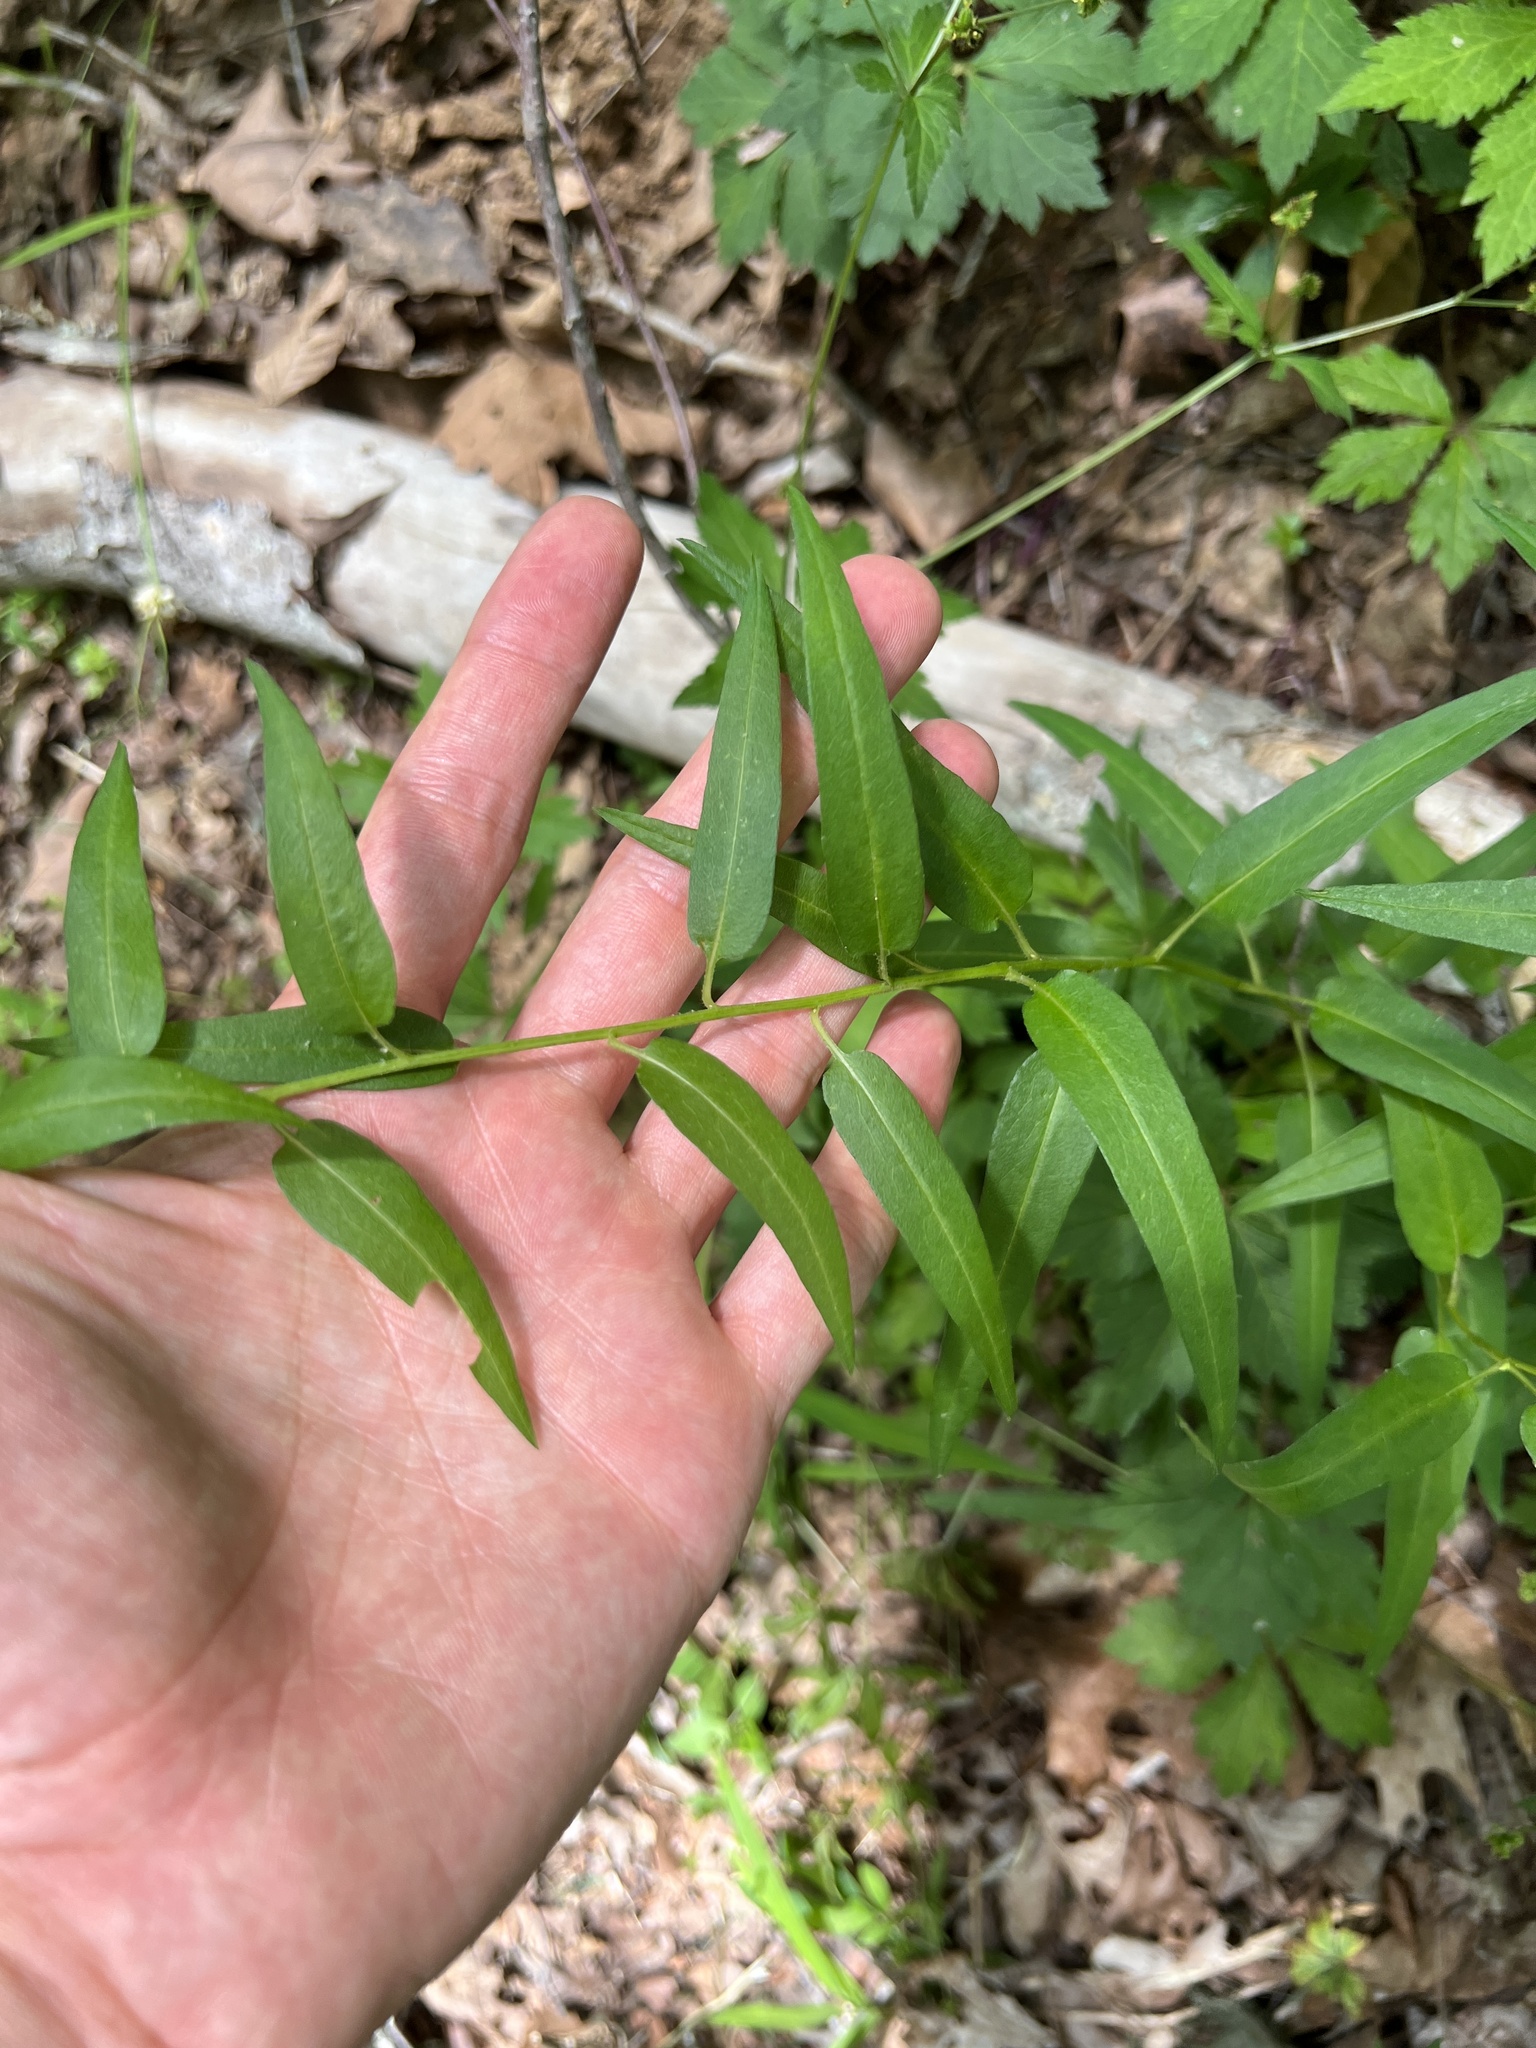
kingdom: Plantae
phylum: Tracheophyta
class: Magnoliopsida
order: Asterales
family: Asteraceae
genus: Symphyotrichum
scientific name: Symphyotrichum shortii
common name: Short's aster
